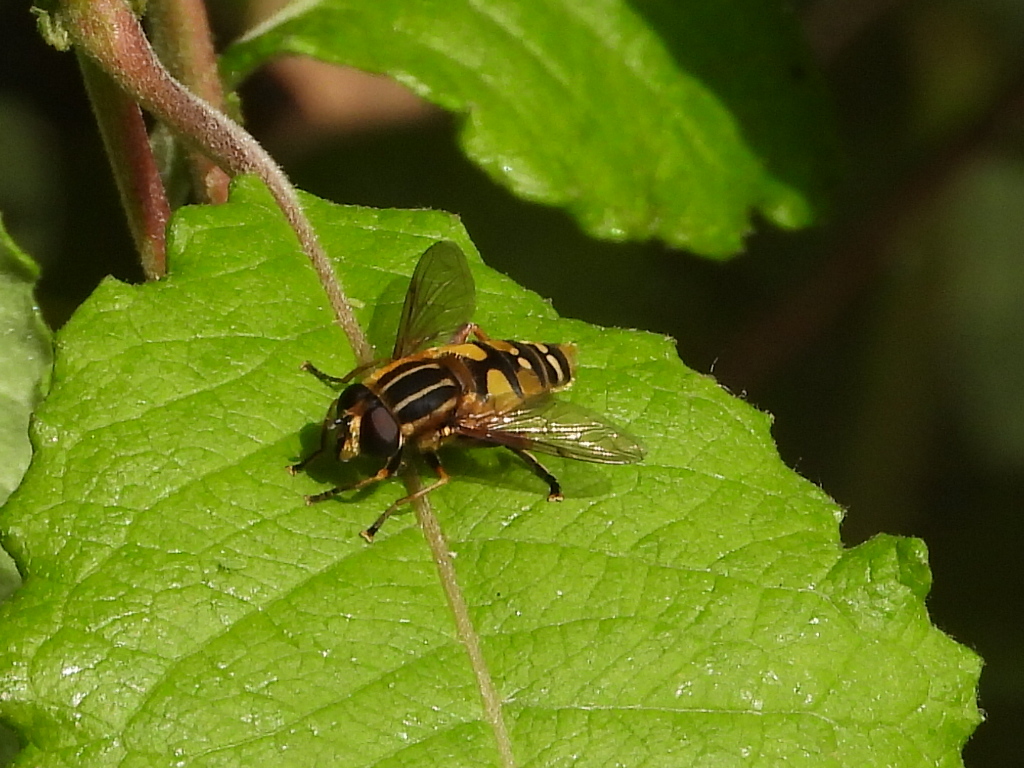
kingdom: Animalia
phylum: Arthropoda
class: Insecta
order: Diptera
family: Syrphidae
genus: Helophilus
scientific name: Helophilus pendulus
